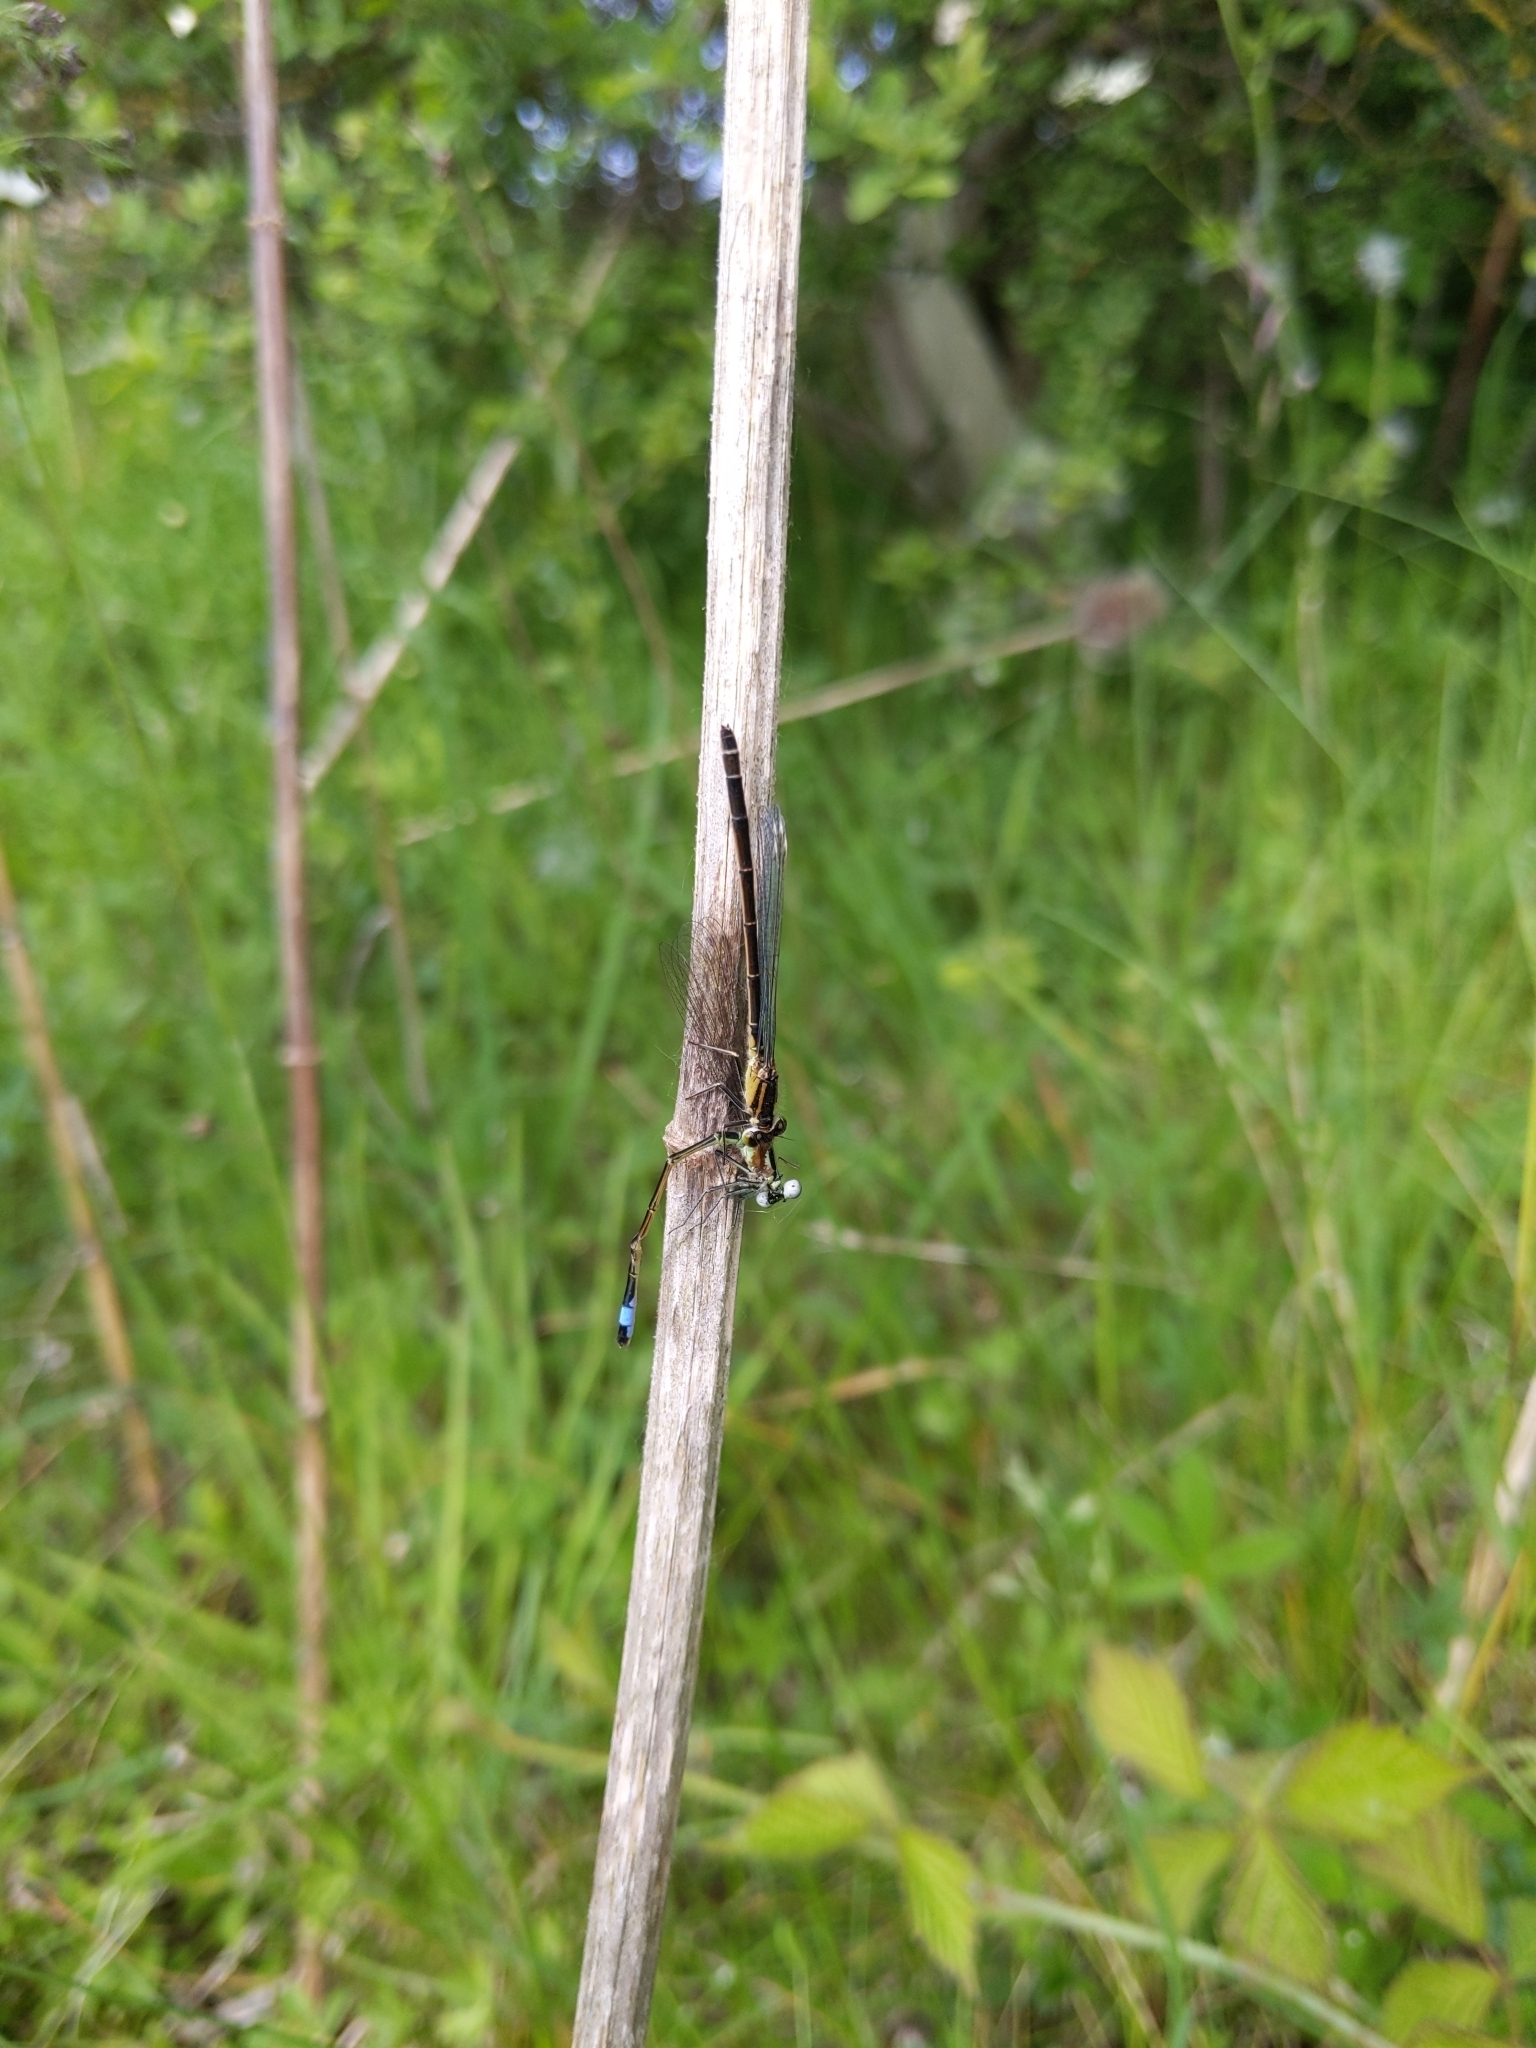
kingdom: Animalia
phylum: Arthropoda
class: Insecta
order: Odonata
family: Coenagrionidae
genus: Ischnura
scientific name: Ischnura elegans
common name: Blue-tailed damselfly
